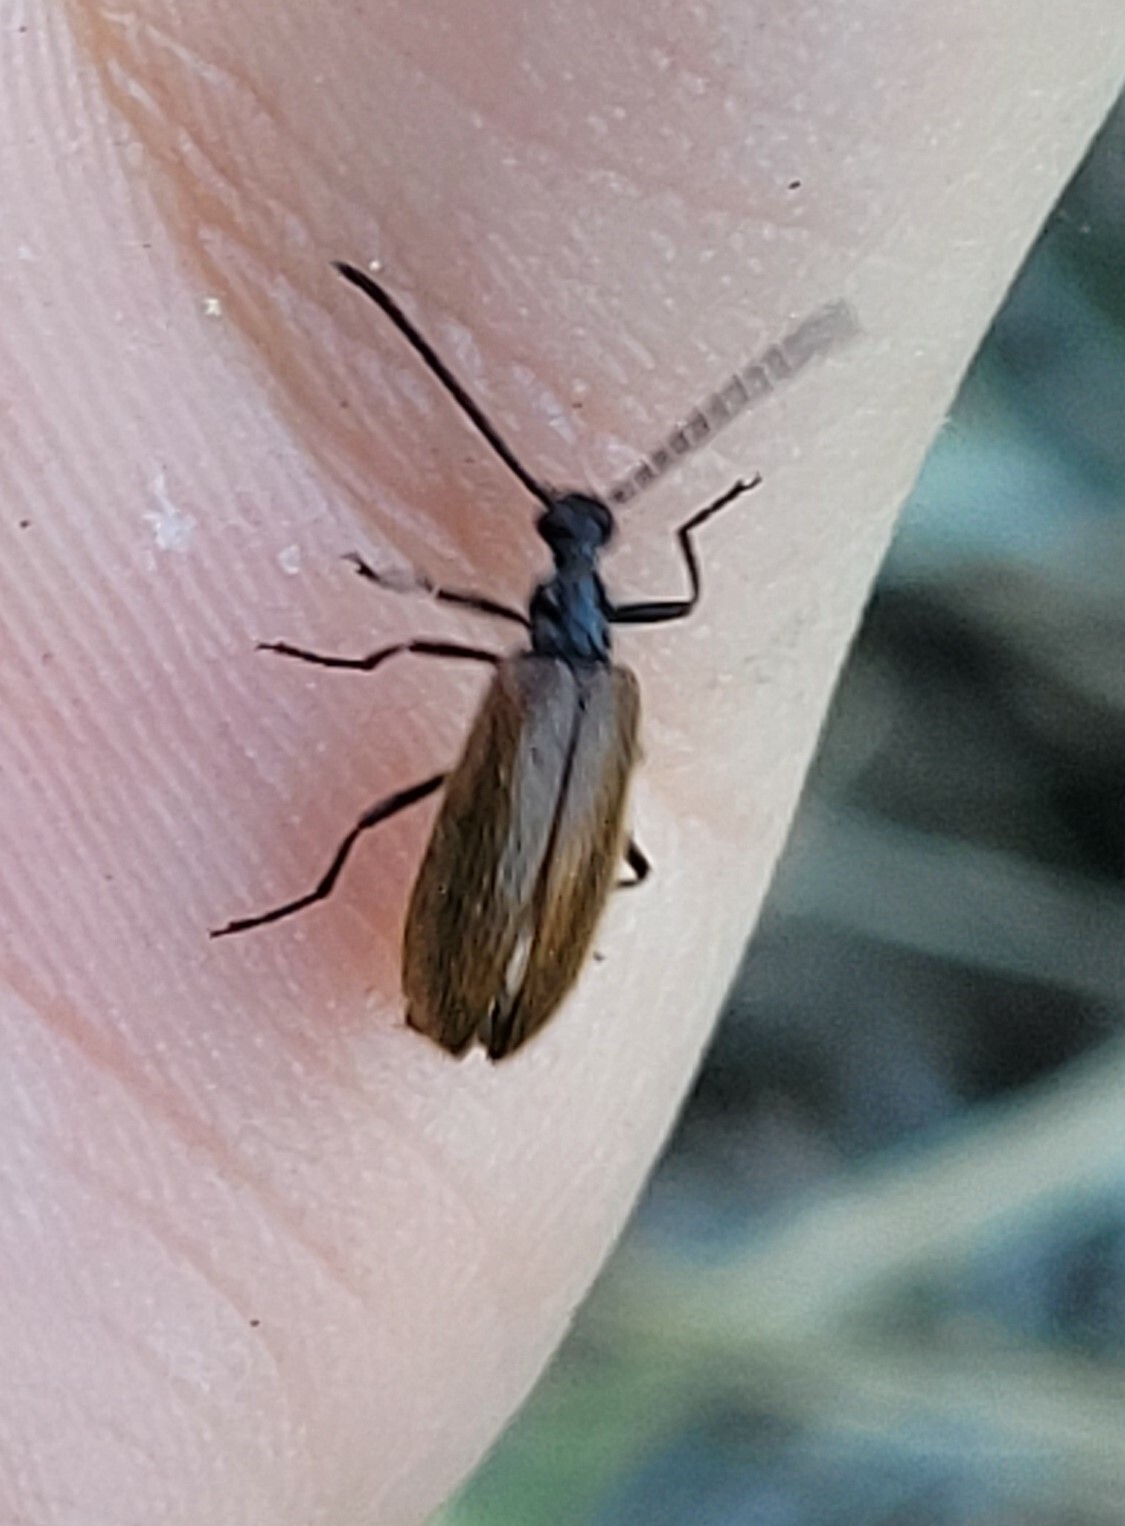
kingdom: Animalia
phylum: Arthropoda
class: Insecta
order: Coleoptera
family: Tenebrionidae
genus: Lagria
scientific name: Lagria hirta
